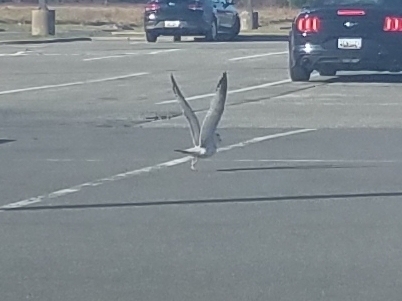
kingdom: Animalia
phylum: Chordata
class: Aves
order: Charadriiformes
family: Laridae
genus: Larus
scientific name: Larus delawarensis
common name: Ring-billed gull
